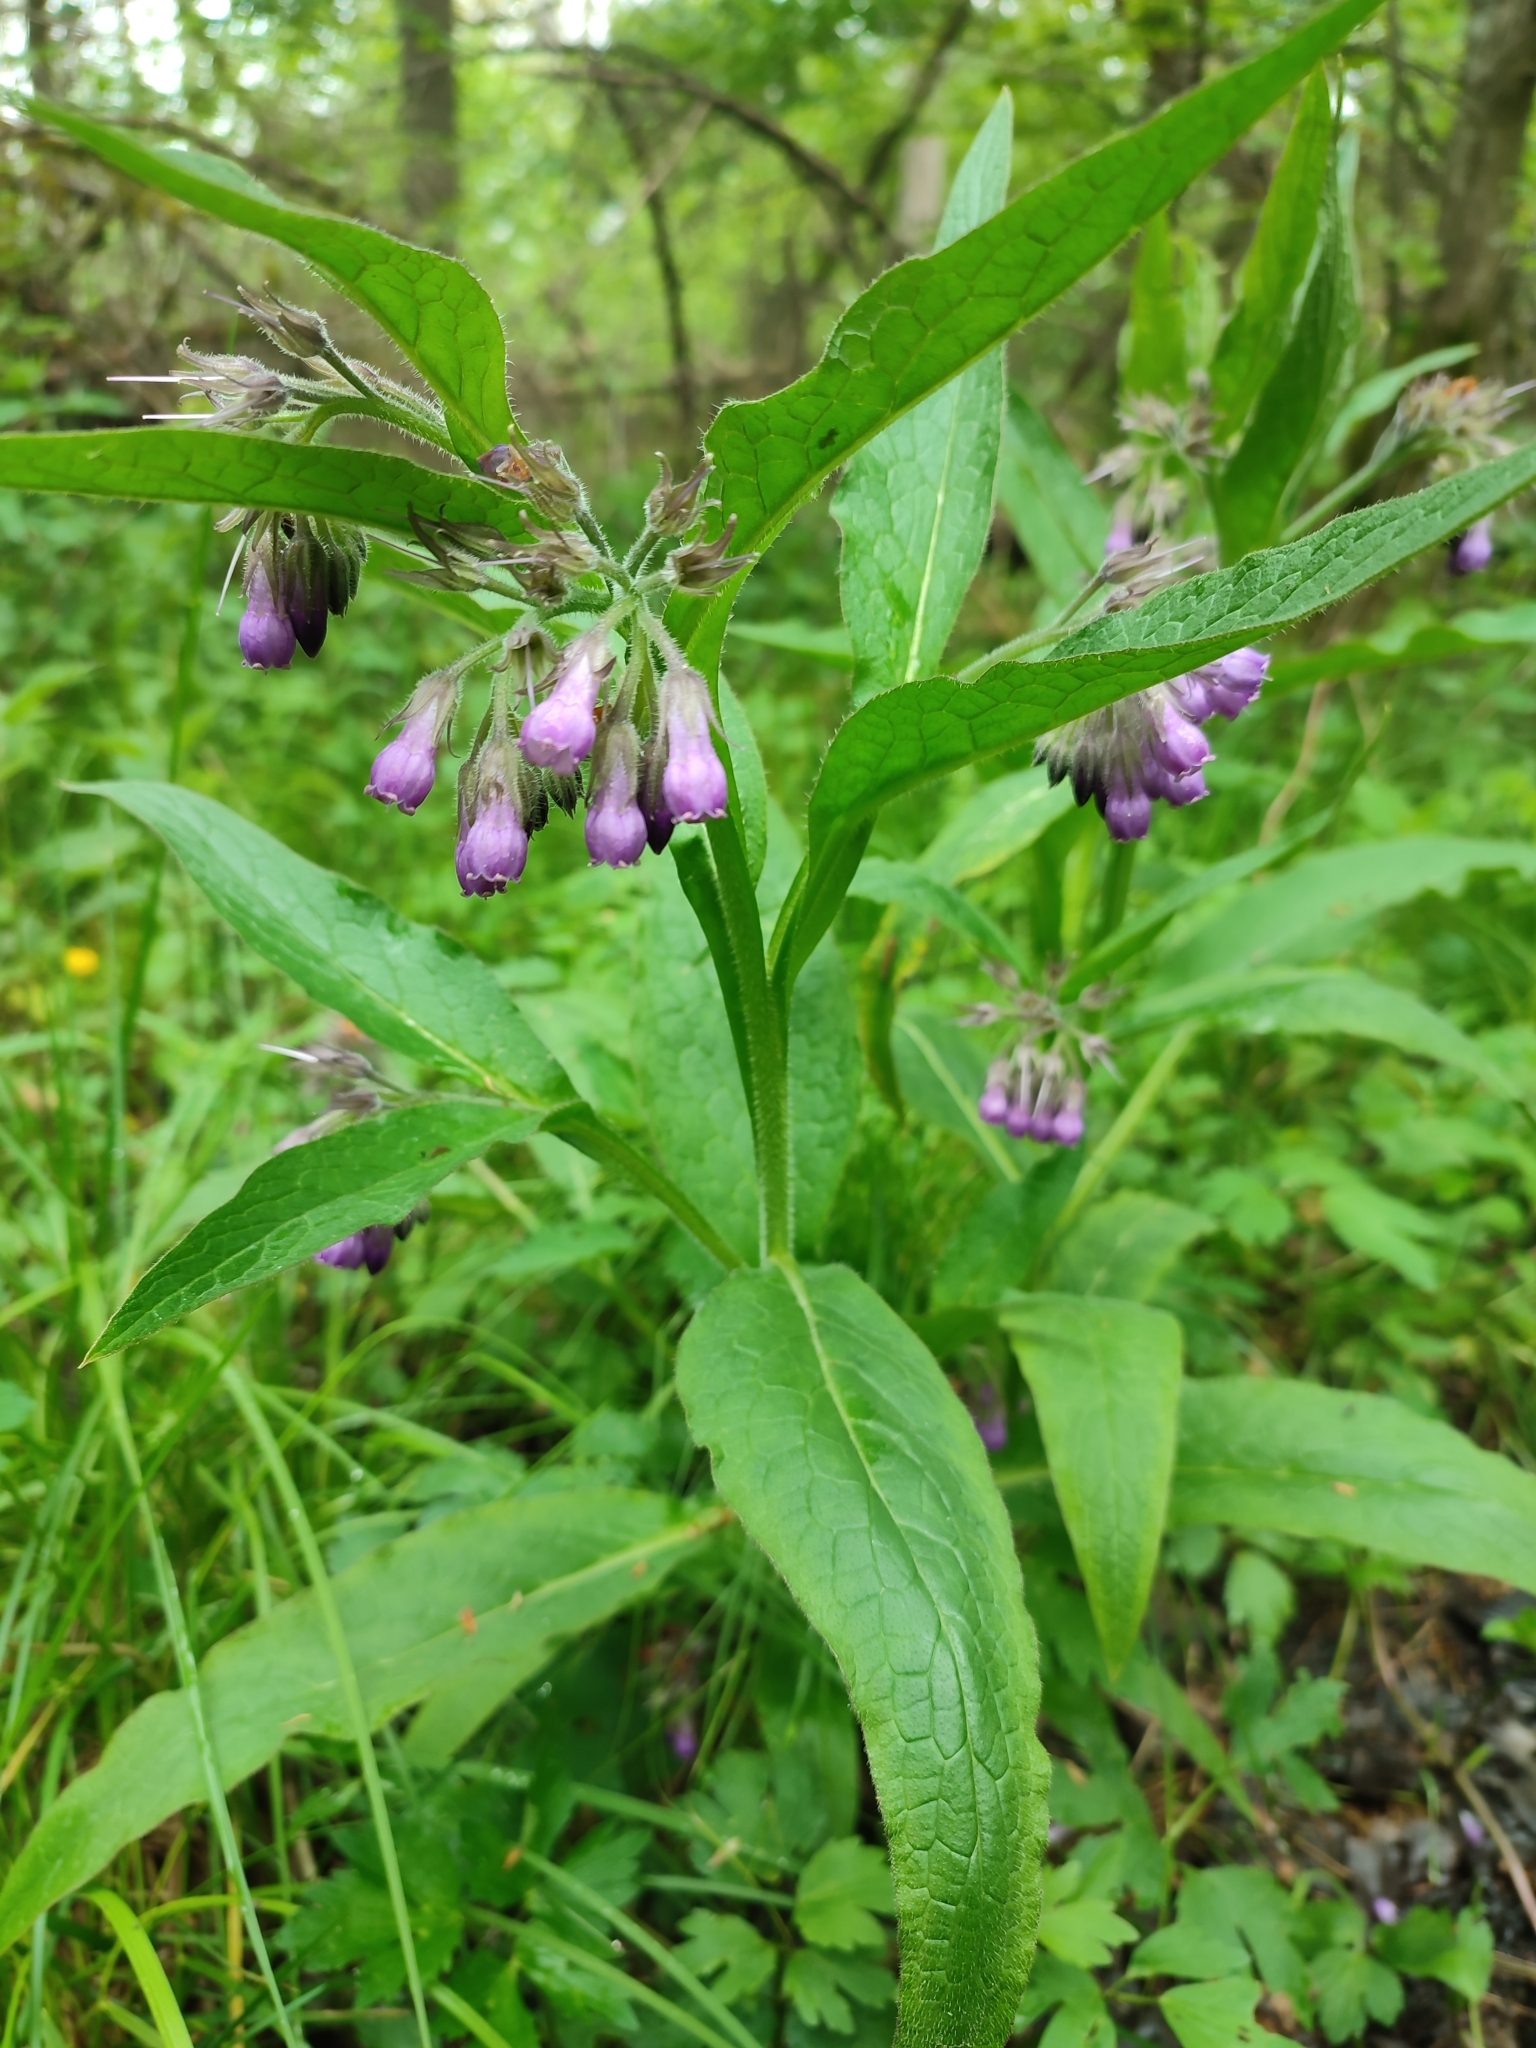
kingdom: Plantae
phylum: Tracheophyta
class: Magnoliopsida
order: Boraginales
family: Boraginaceae
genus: Symphytum
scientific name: Symphytum officinale
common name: Common comfrey
